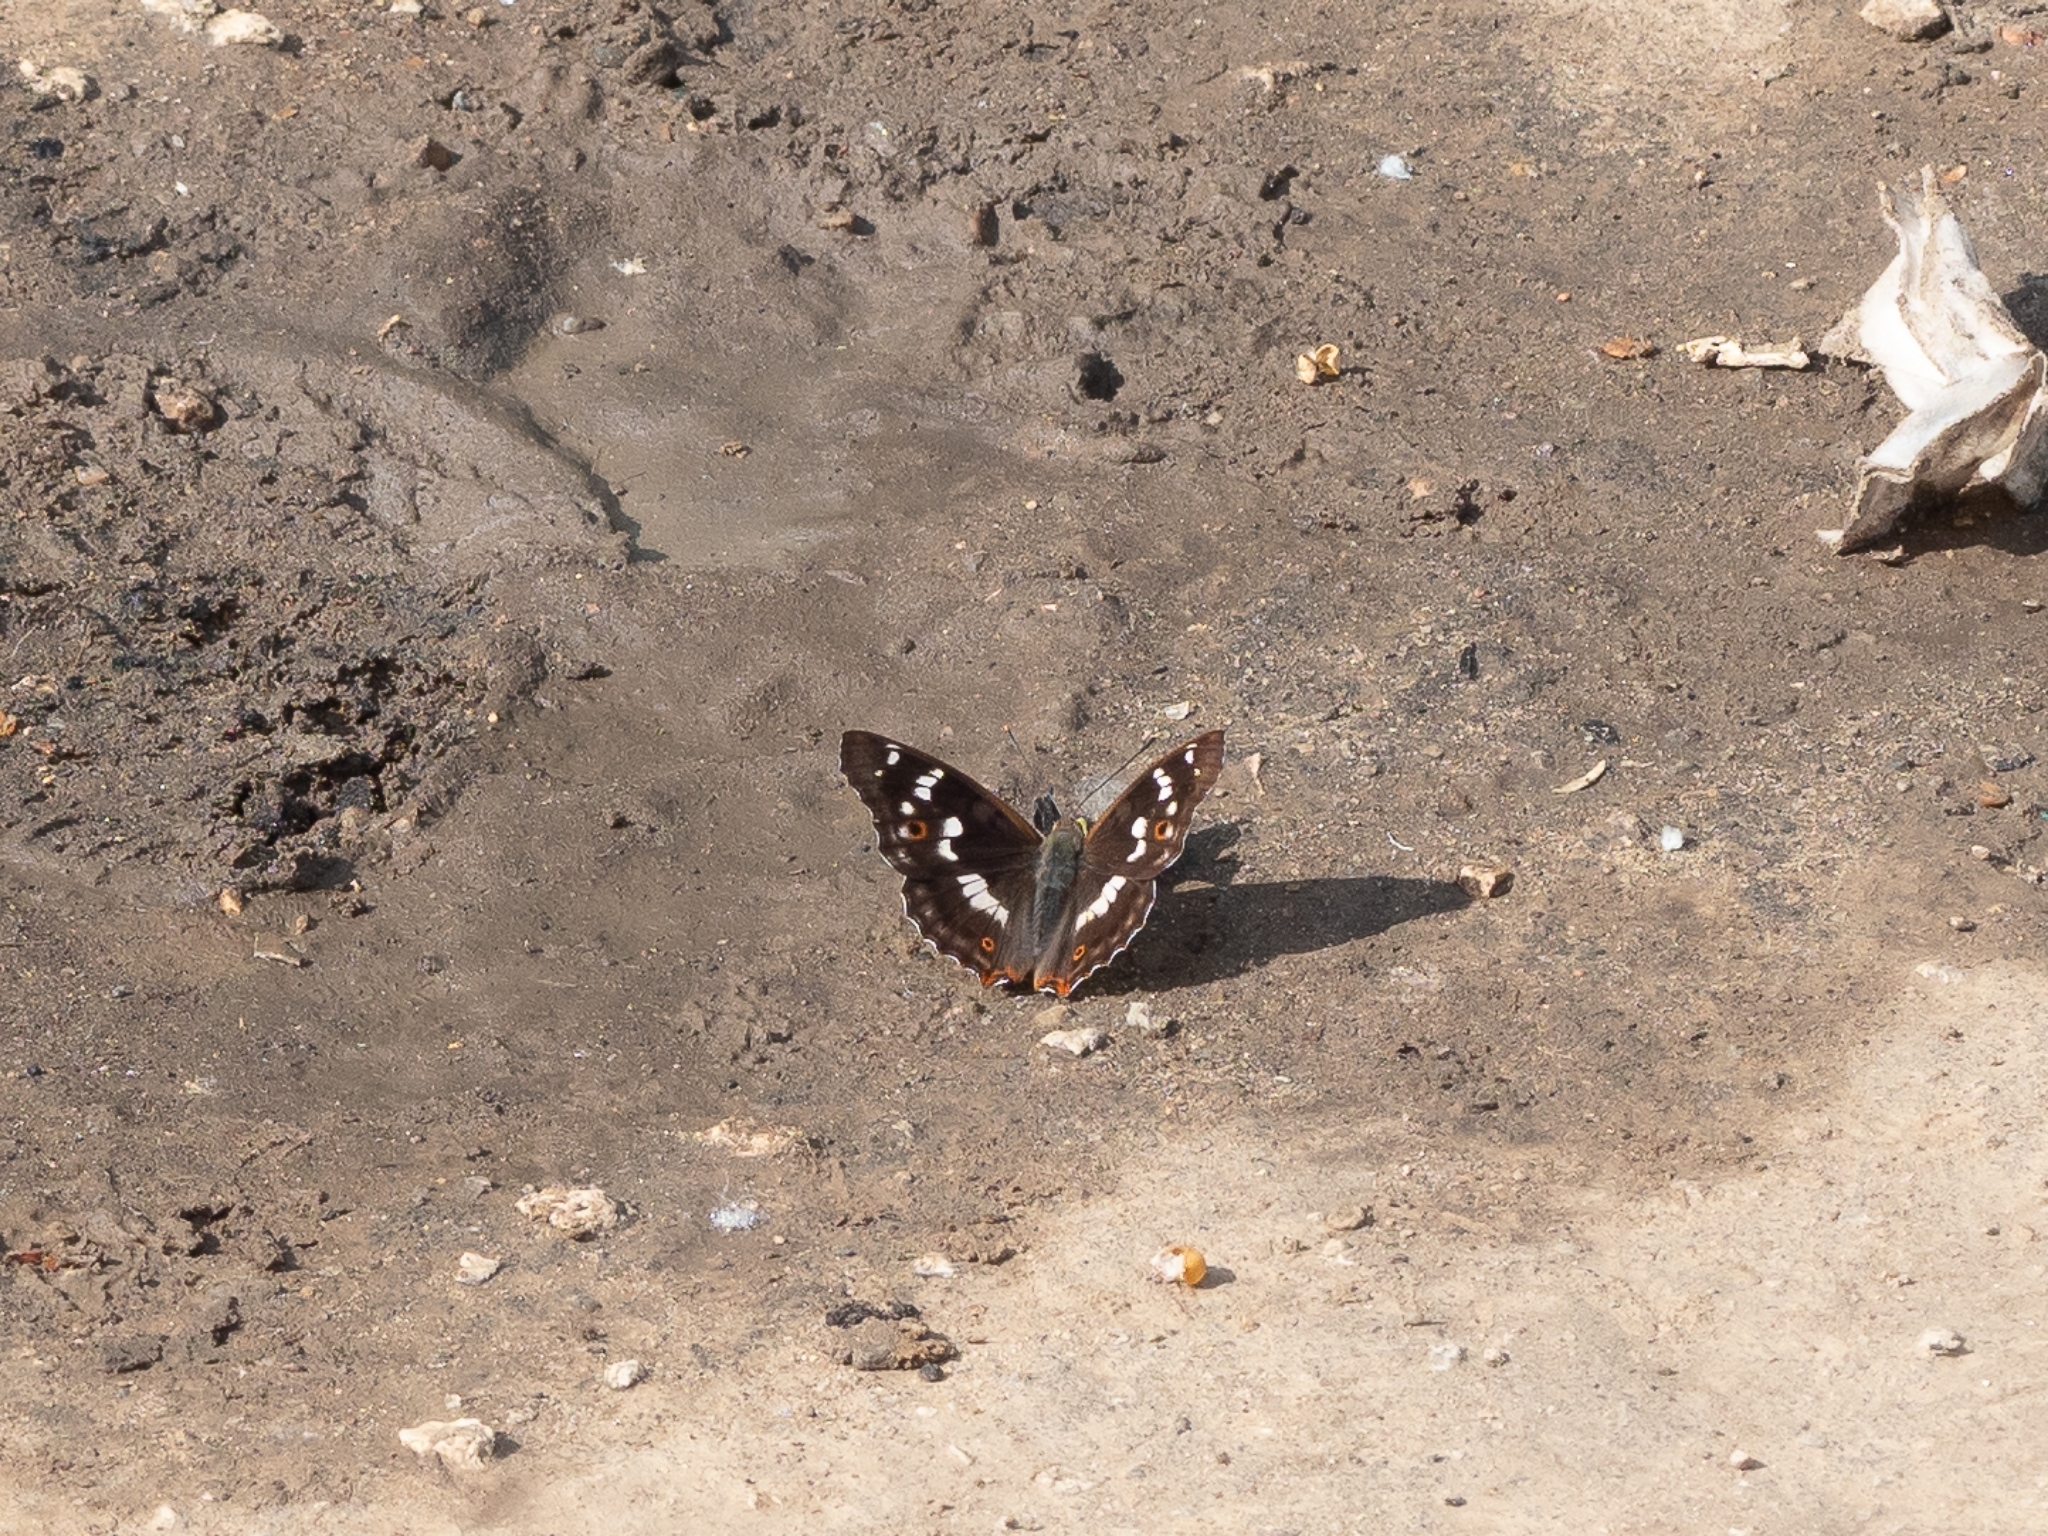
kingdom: Animalia
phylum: Arthropoda
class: Insecta
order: Lepidoptera
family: Nymphalidae
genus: Apatura
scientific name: Apatura ilia
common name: Lesser purple emperor
